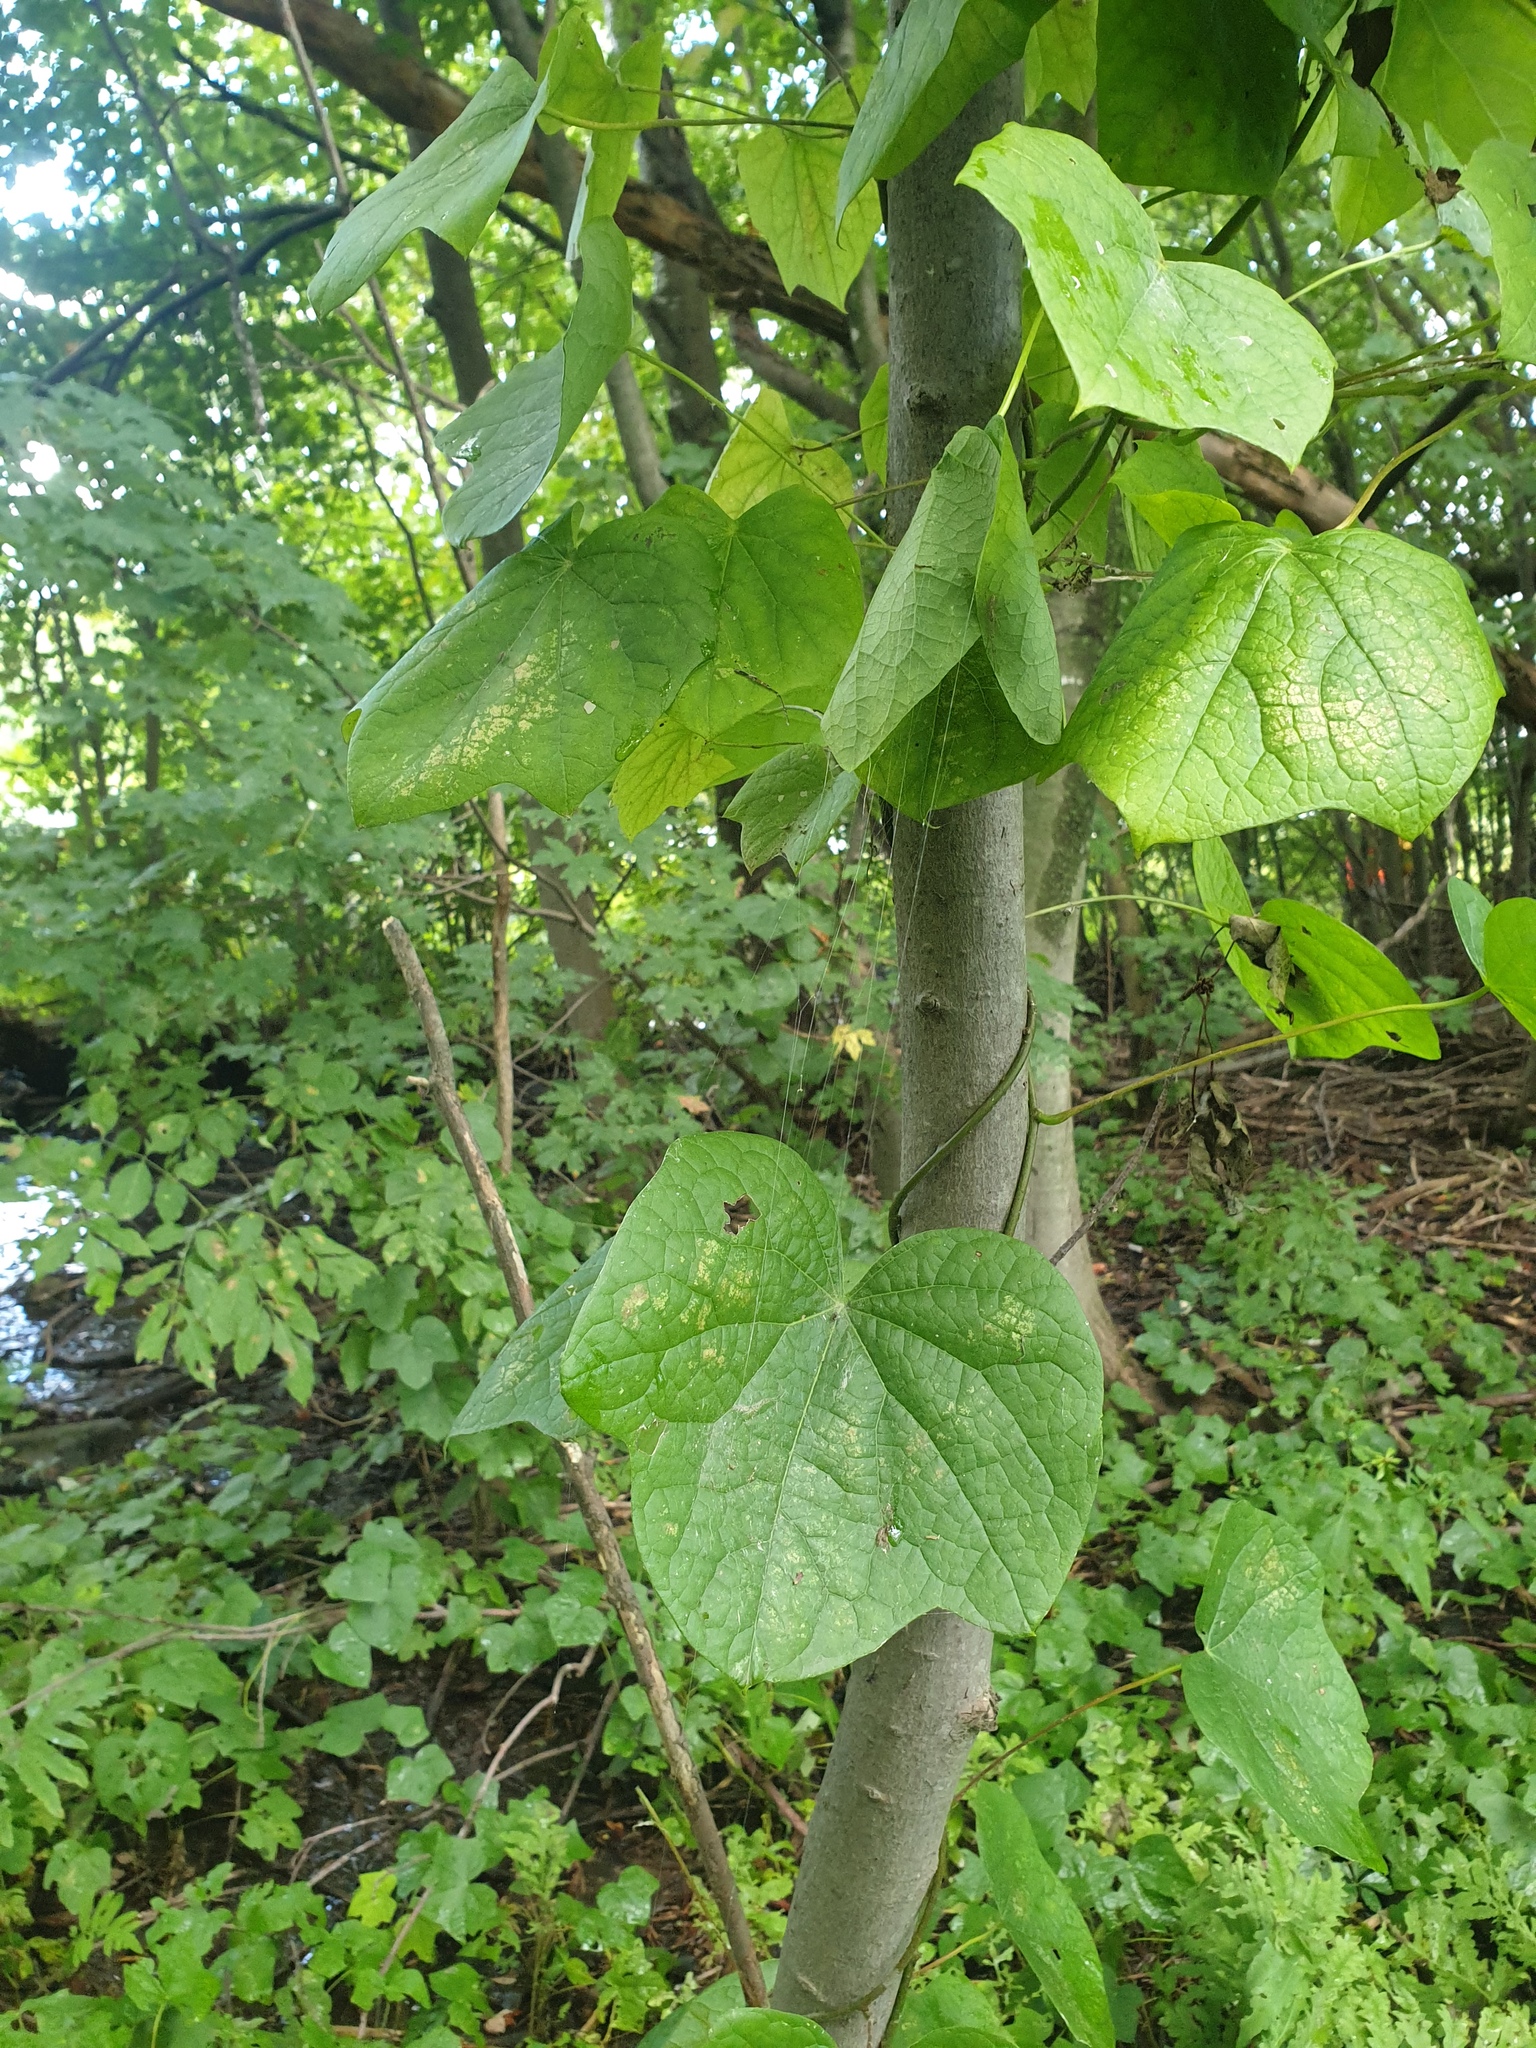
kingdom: Plantae
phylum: Tracheophyta
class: Magnoliopsida
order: Ranunculales
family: Menispermaceae
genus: Menispermum
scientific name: Menispermum canadense
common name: Moonseed
